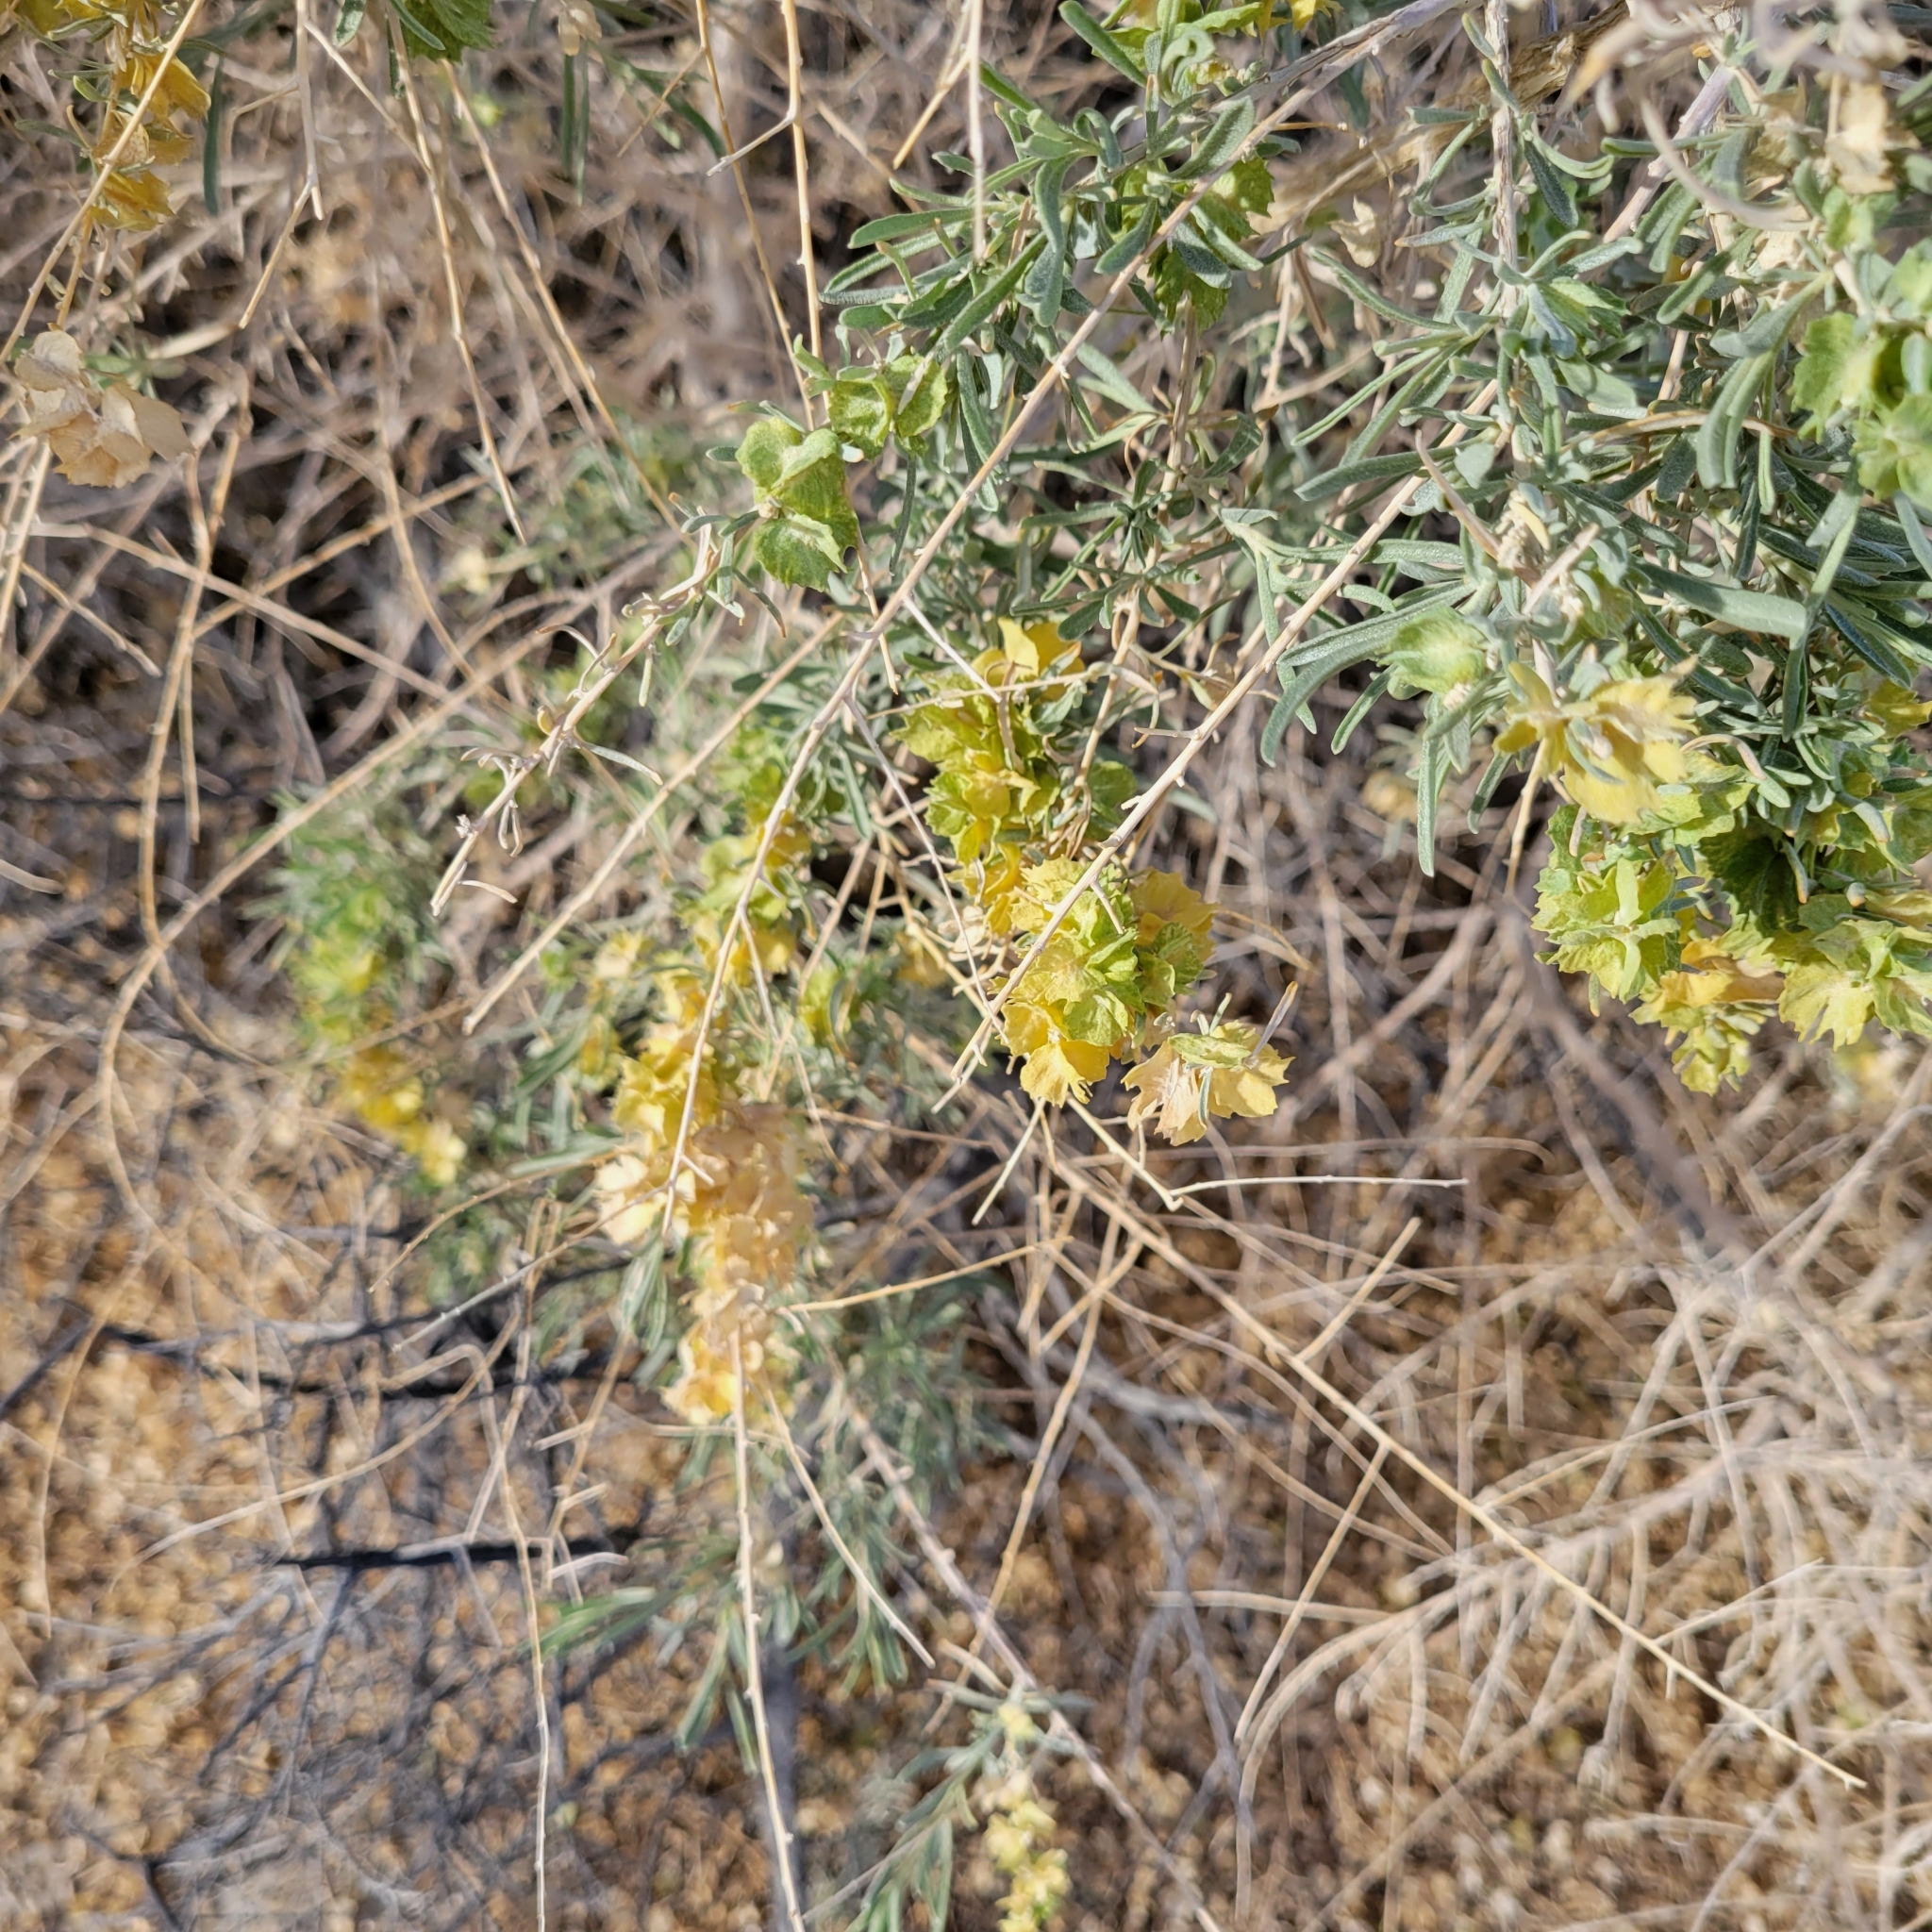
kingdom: Plantae
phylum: Tracheophyta
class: Magnoliopsida
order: Caryophyllales
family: Amaranthaceae
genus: Atriplex
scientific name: Atriplex canescens
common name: Four-wing saltbush
